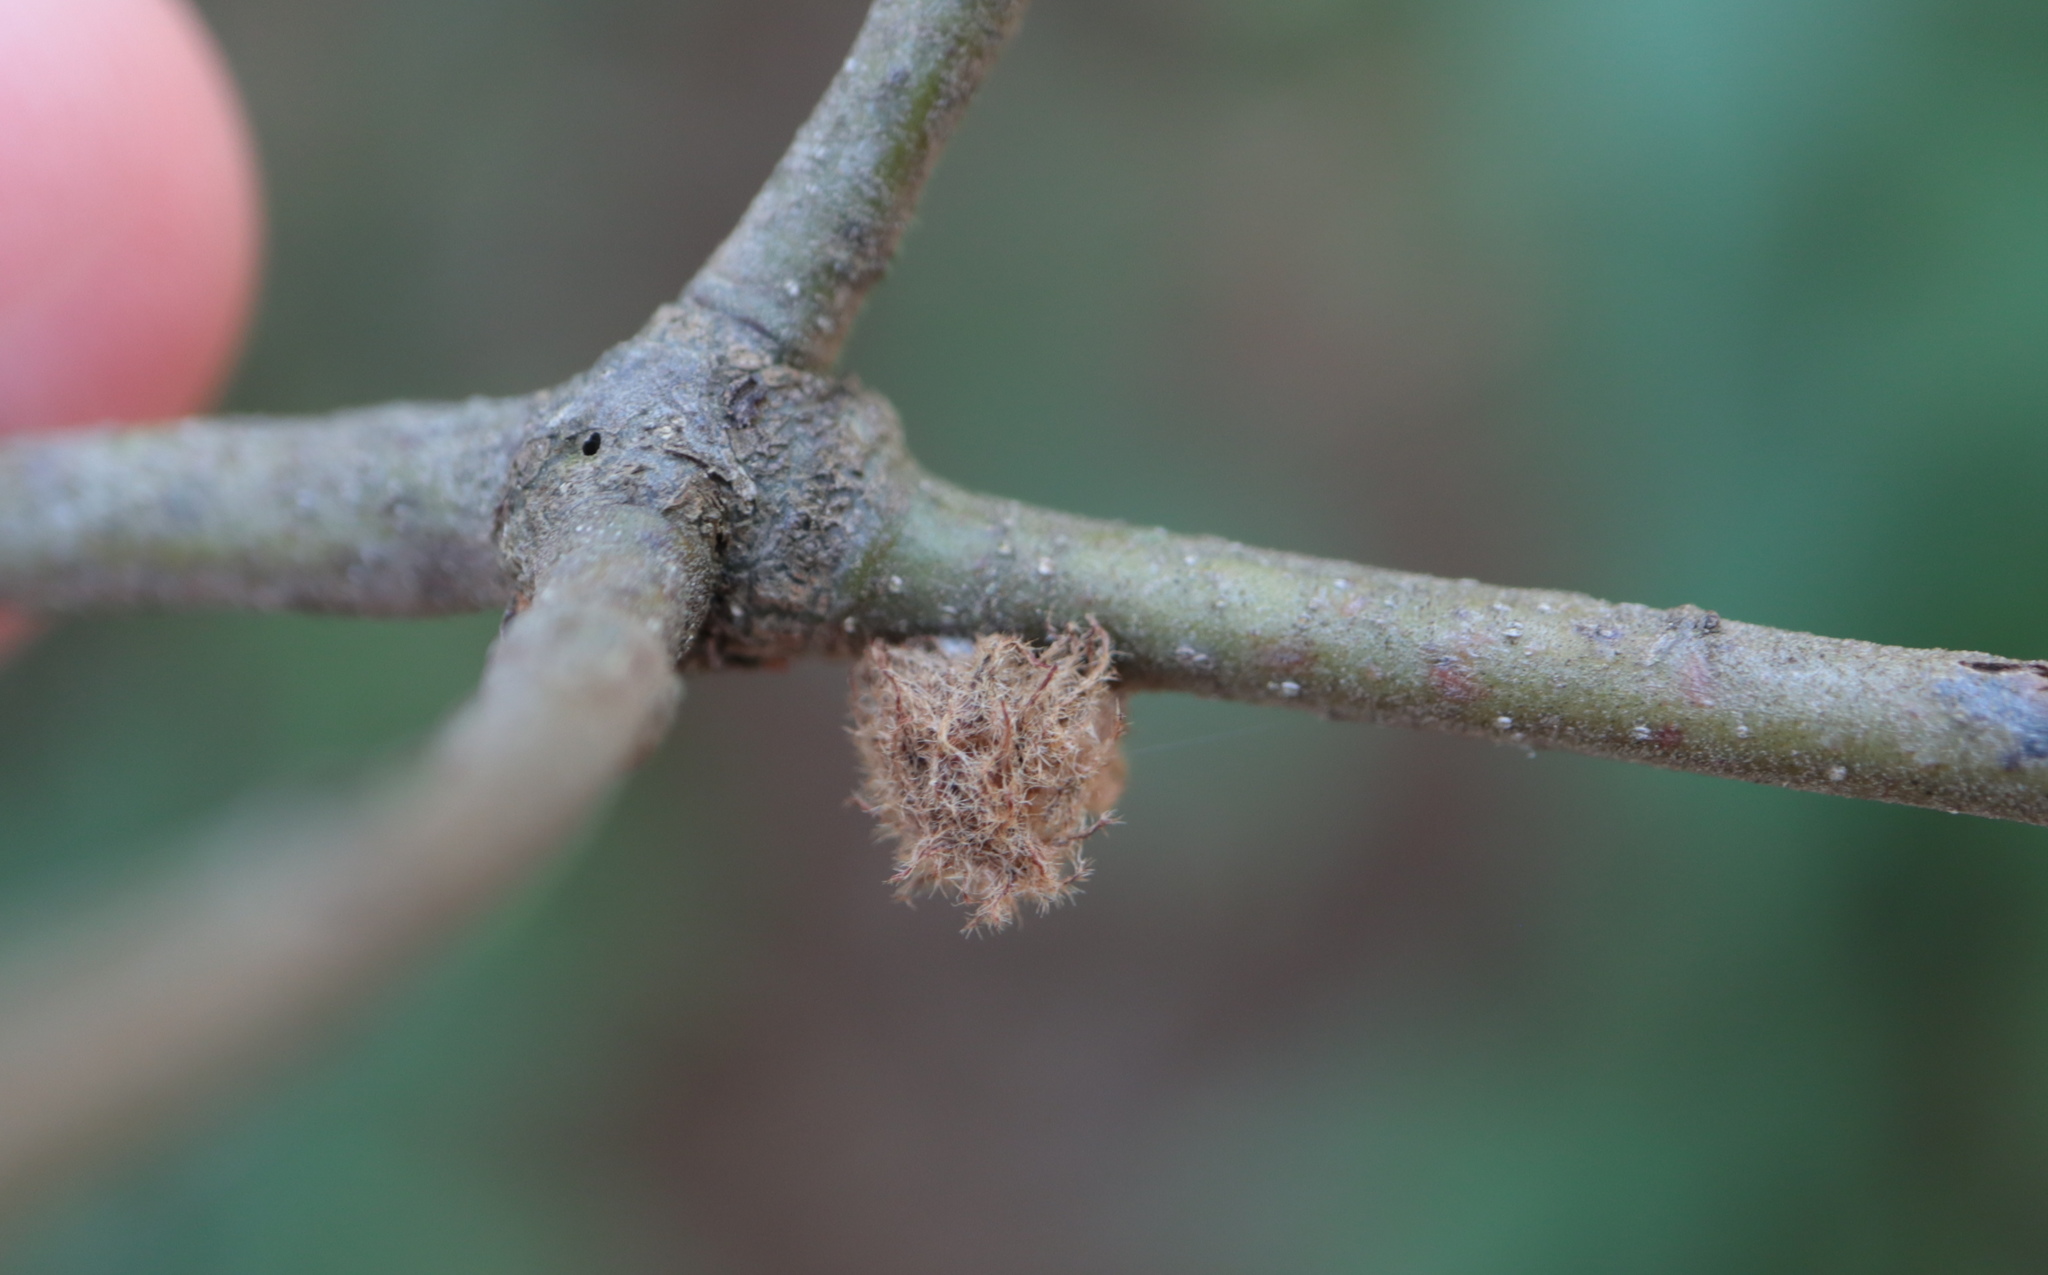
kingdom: Animalia
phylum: Arthropoda
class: Insecta
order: Hymenoptera
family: Cynipidae
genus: Dryocosmus
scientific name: Dryocosmus
